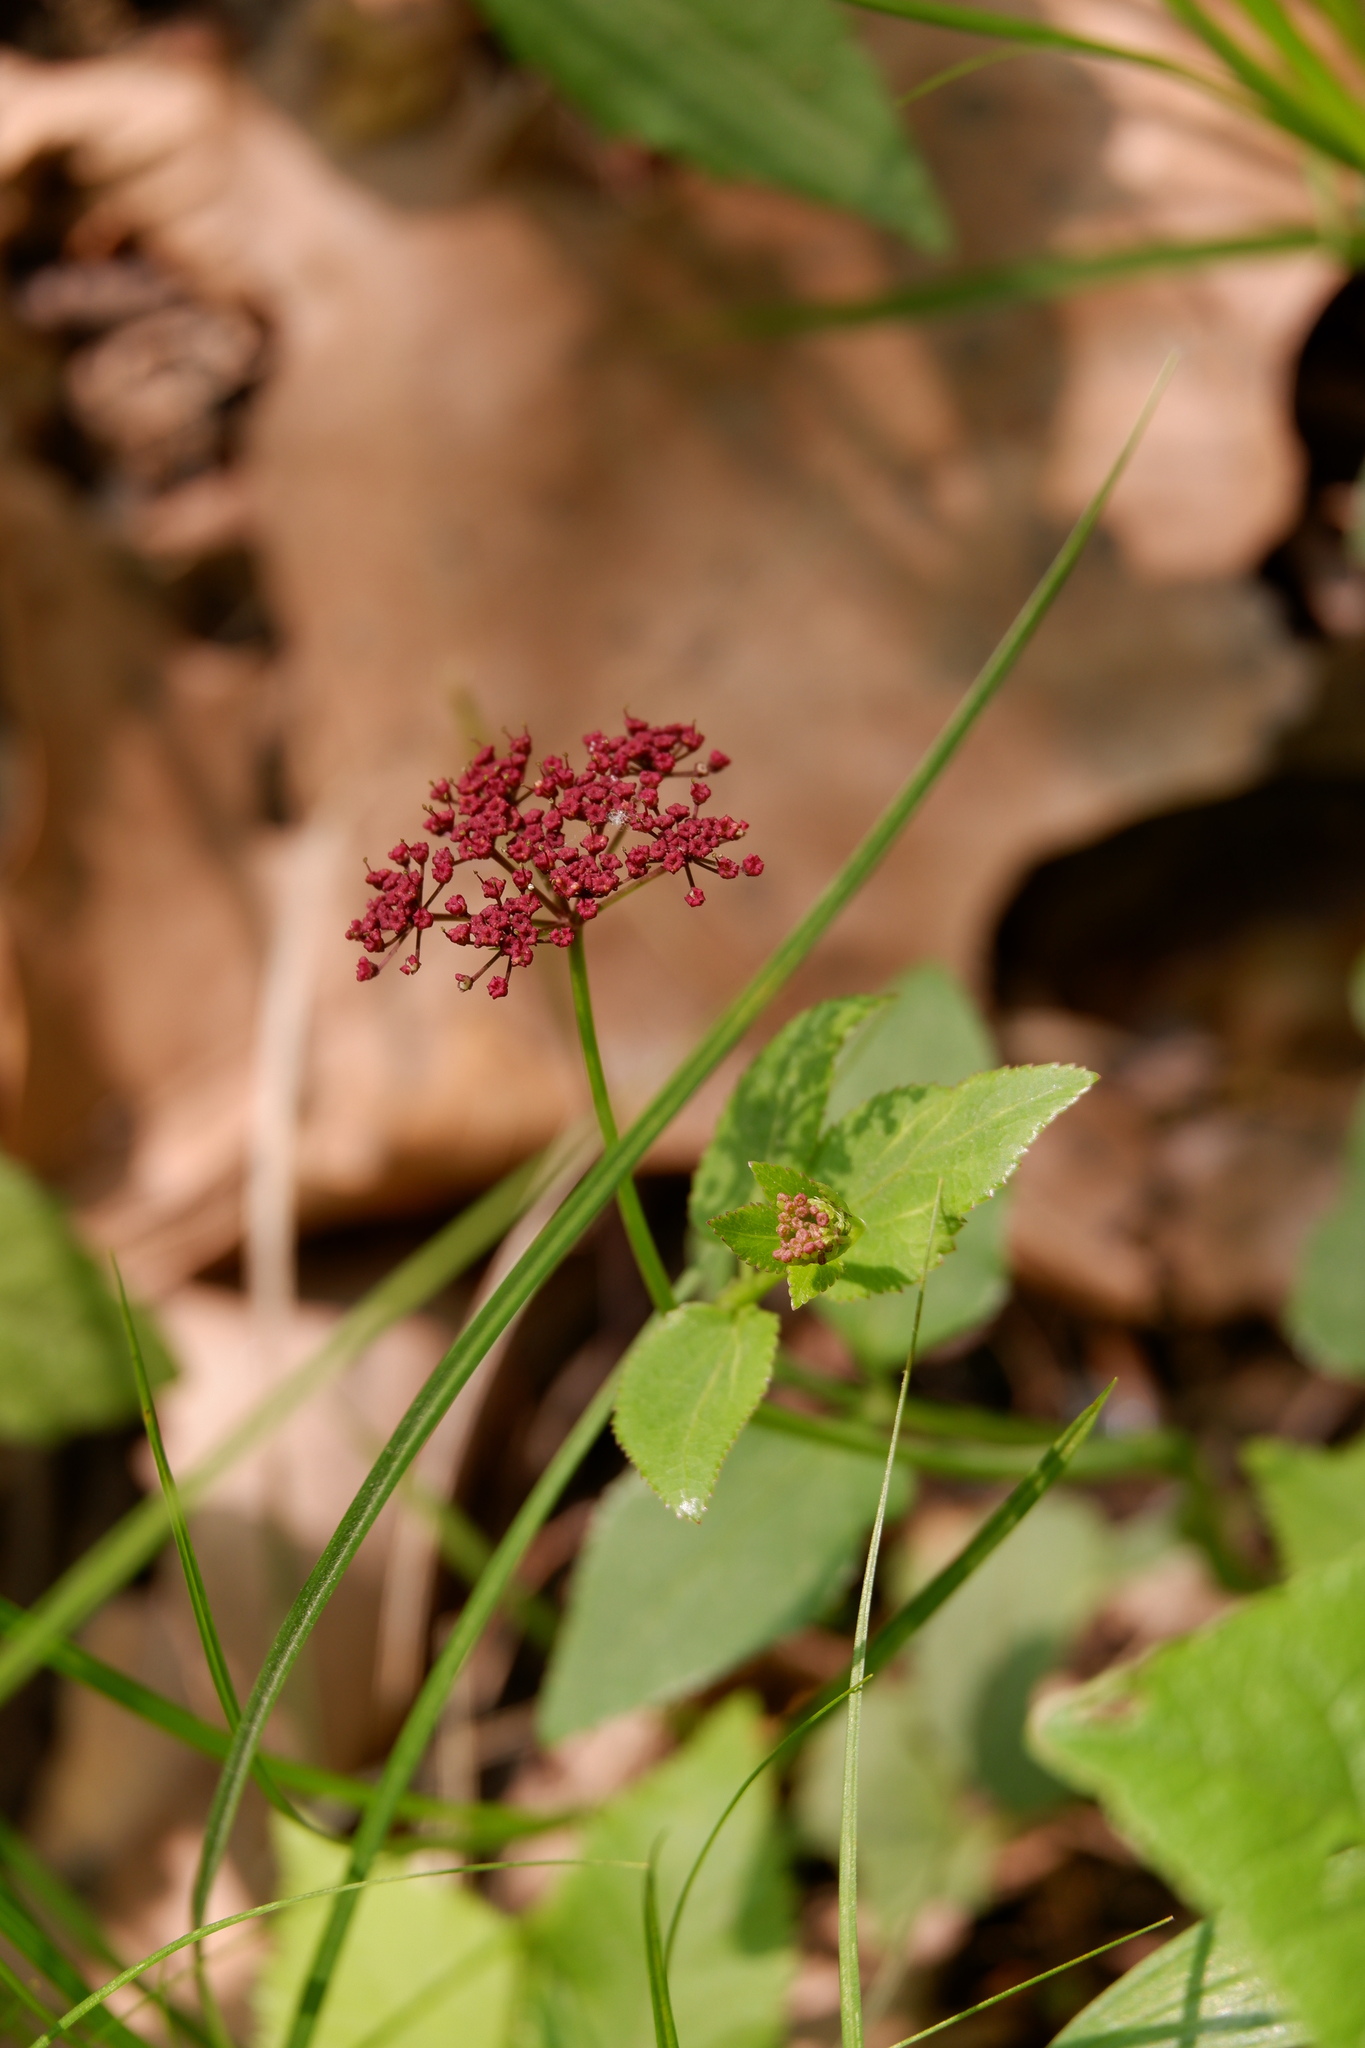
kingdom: Plantae
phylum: Tracheophyta
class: Magnoliopsida
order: Apiales
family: Apiaceae
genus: Thaspium
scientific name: Thaspium trifoliatum
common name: Purple meadow-parsnip
